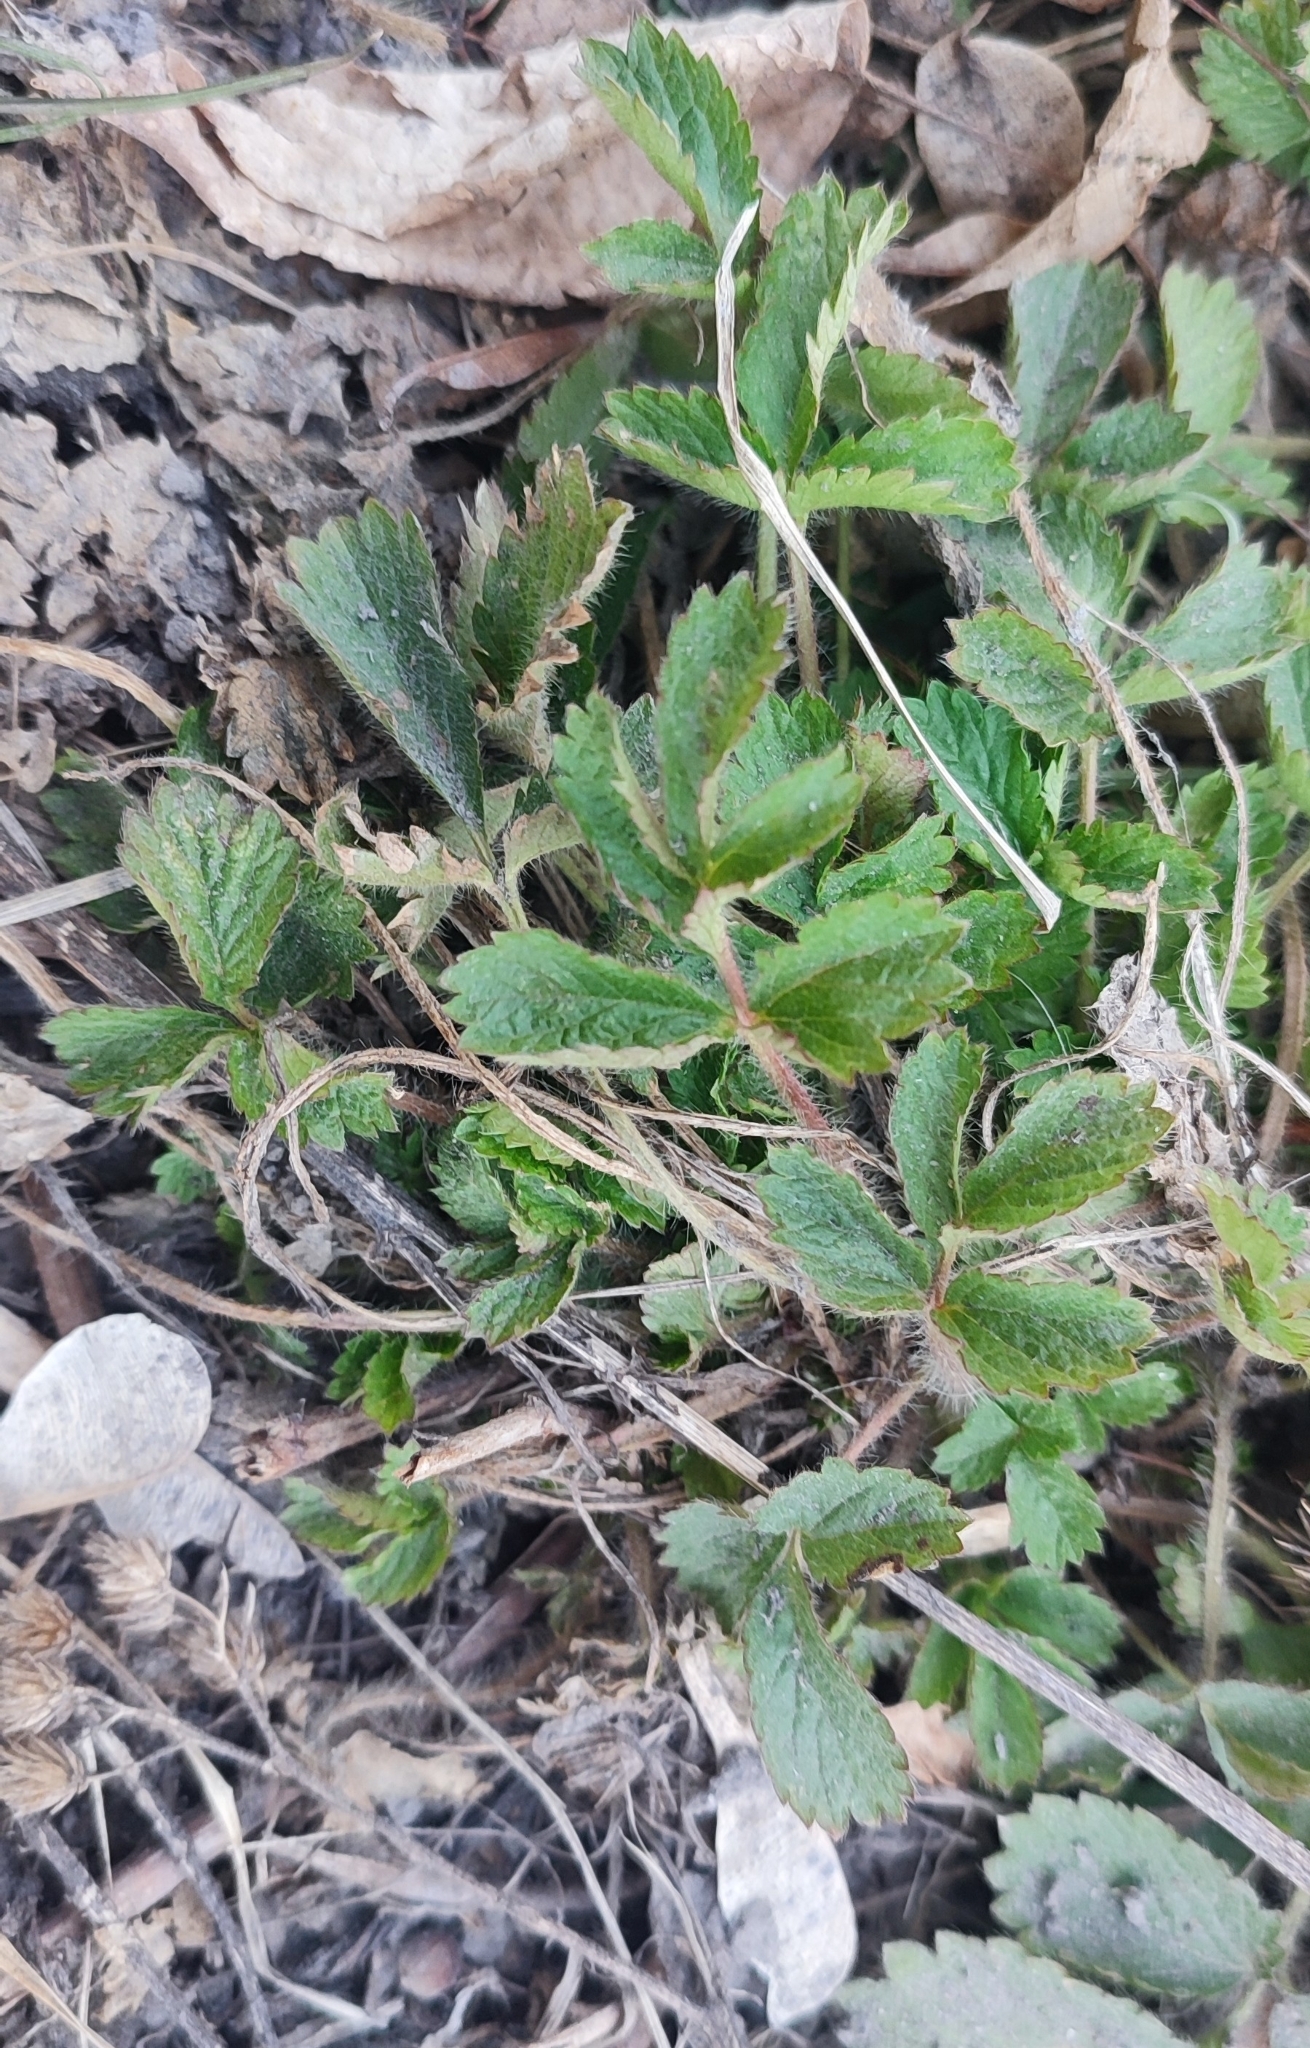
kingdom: Plantae
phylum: Tracheophyta
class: Magnoliopsida
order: Rosales
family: Rosaceae
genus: Potentilla
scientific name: Potentilla norvegica
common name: Ternate-leaved cinquefoil
